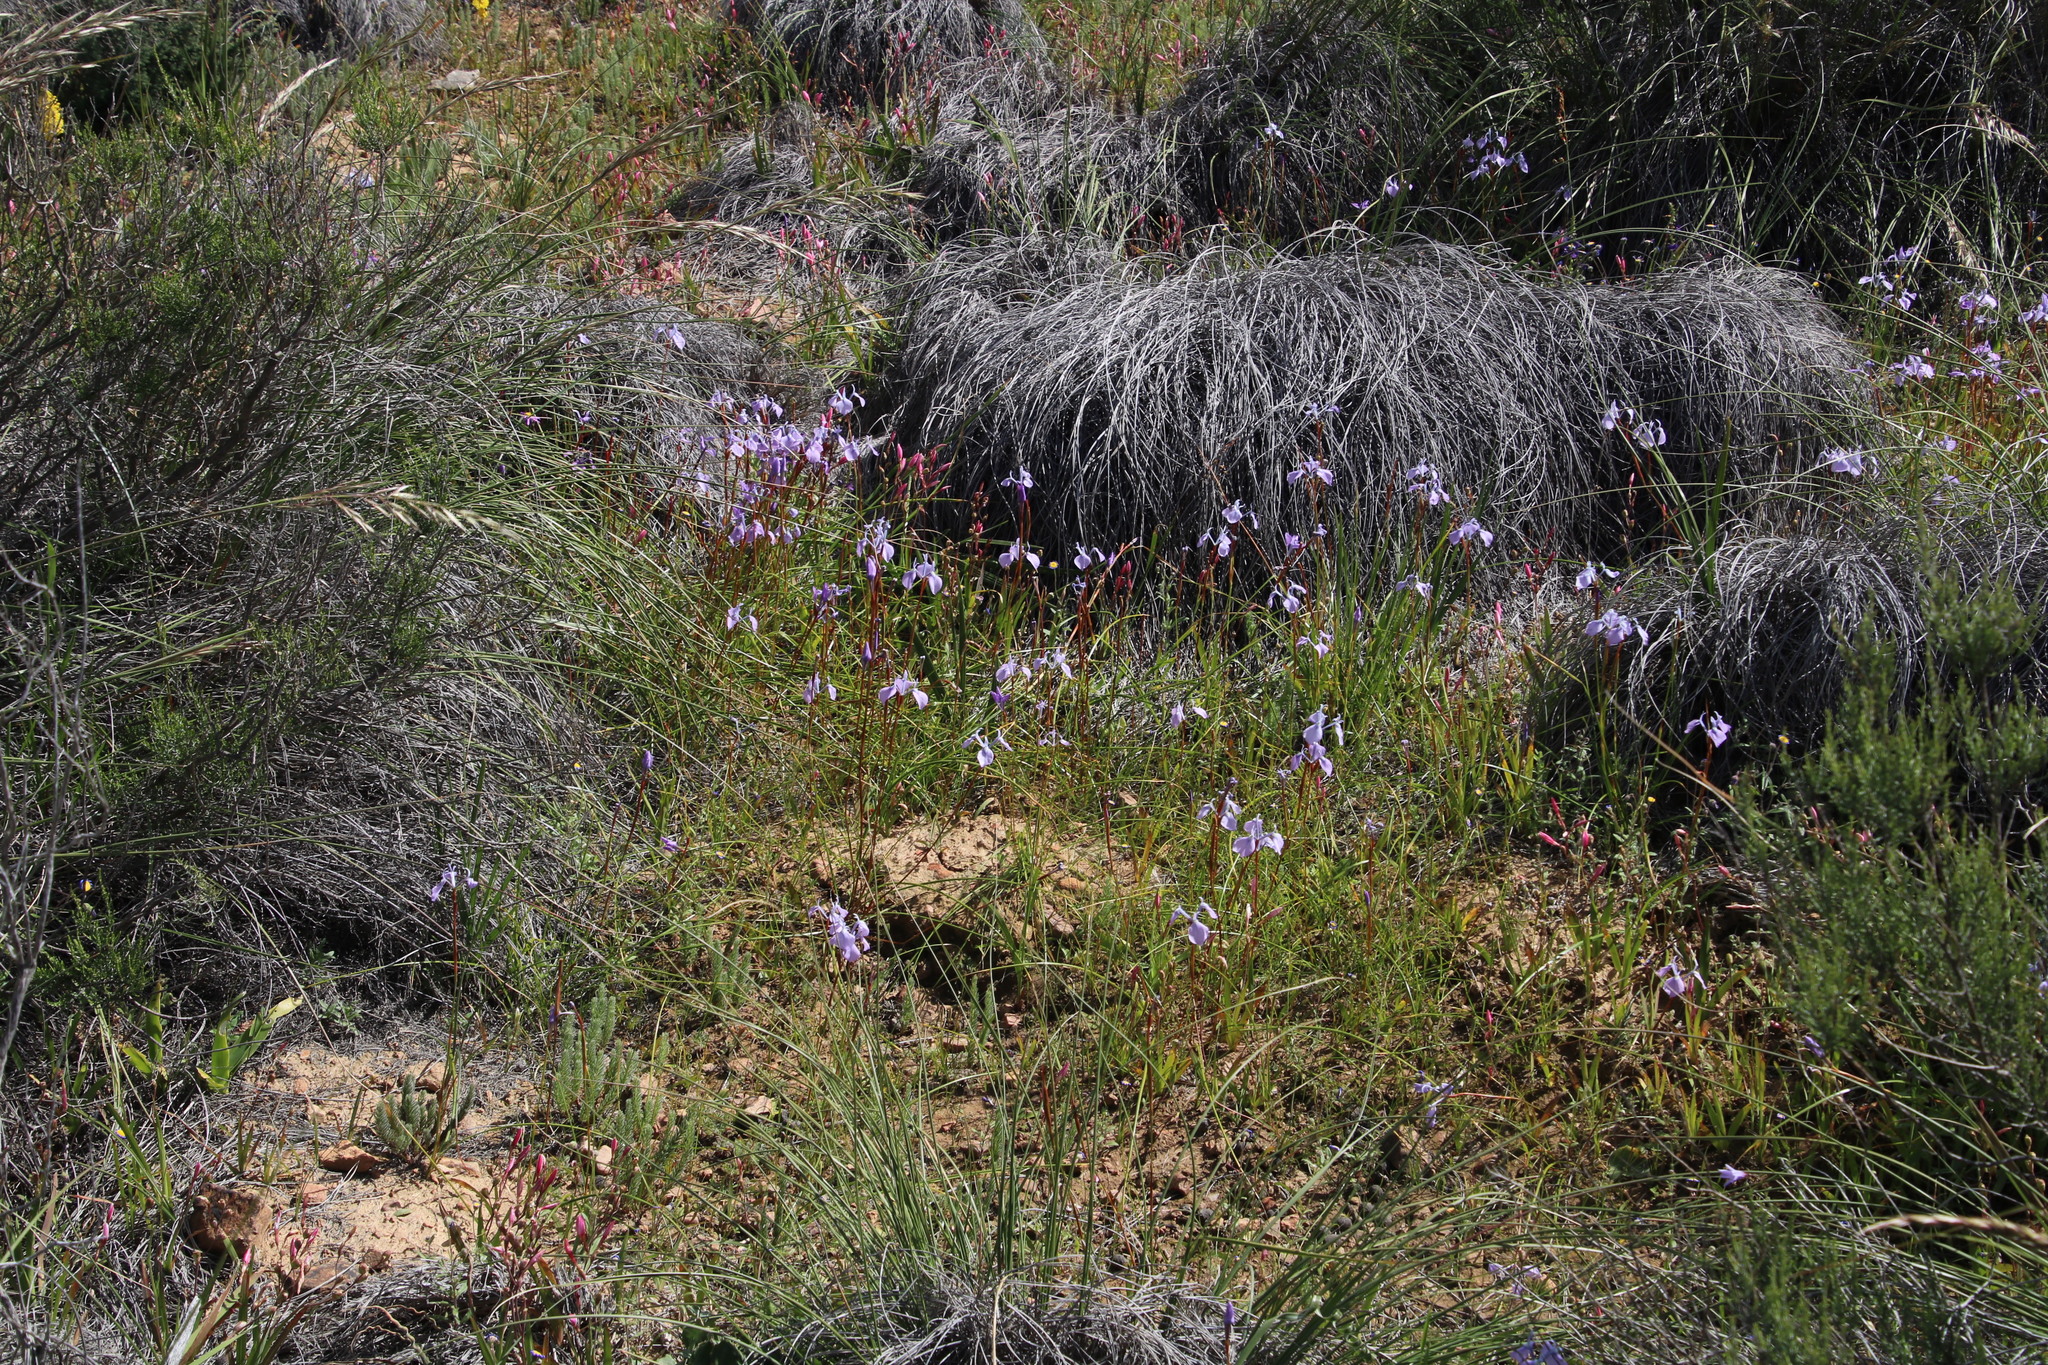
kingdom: Plantae
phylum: Tracheophyta
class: Liliopsida
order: Asparagales
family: Iridaceae
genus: Moraea
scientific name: Moraea tripetala
